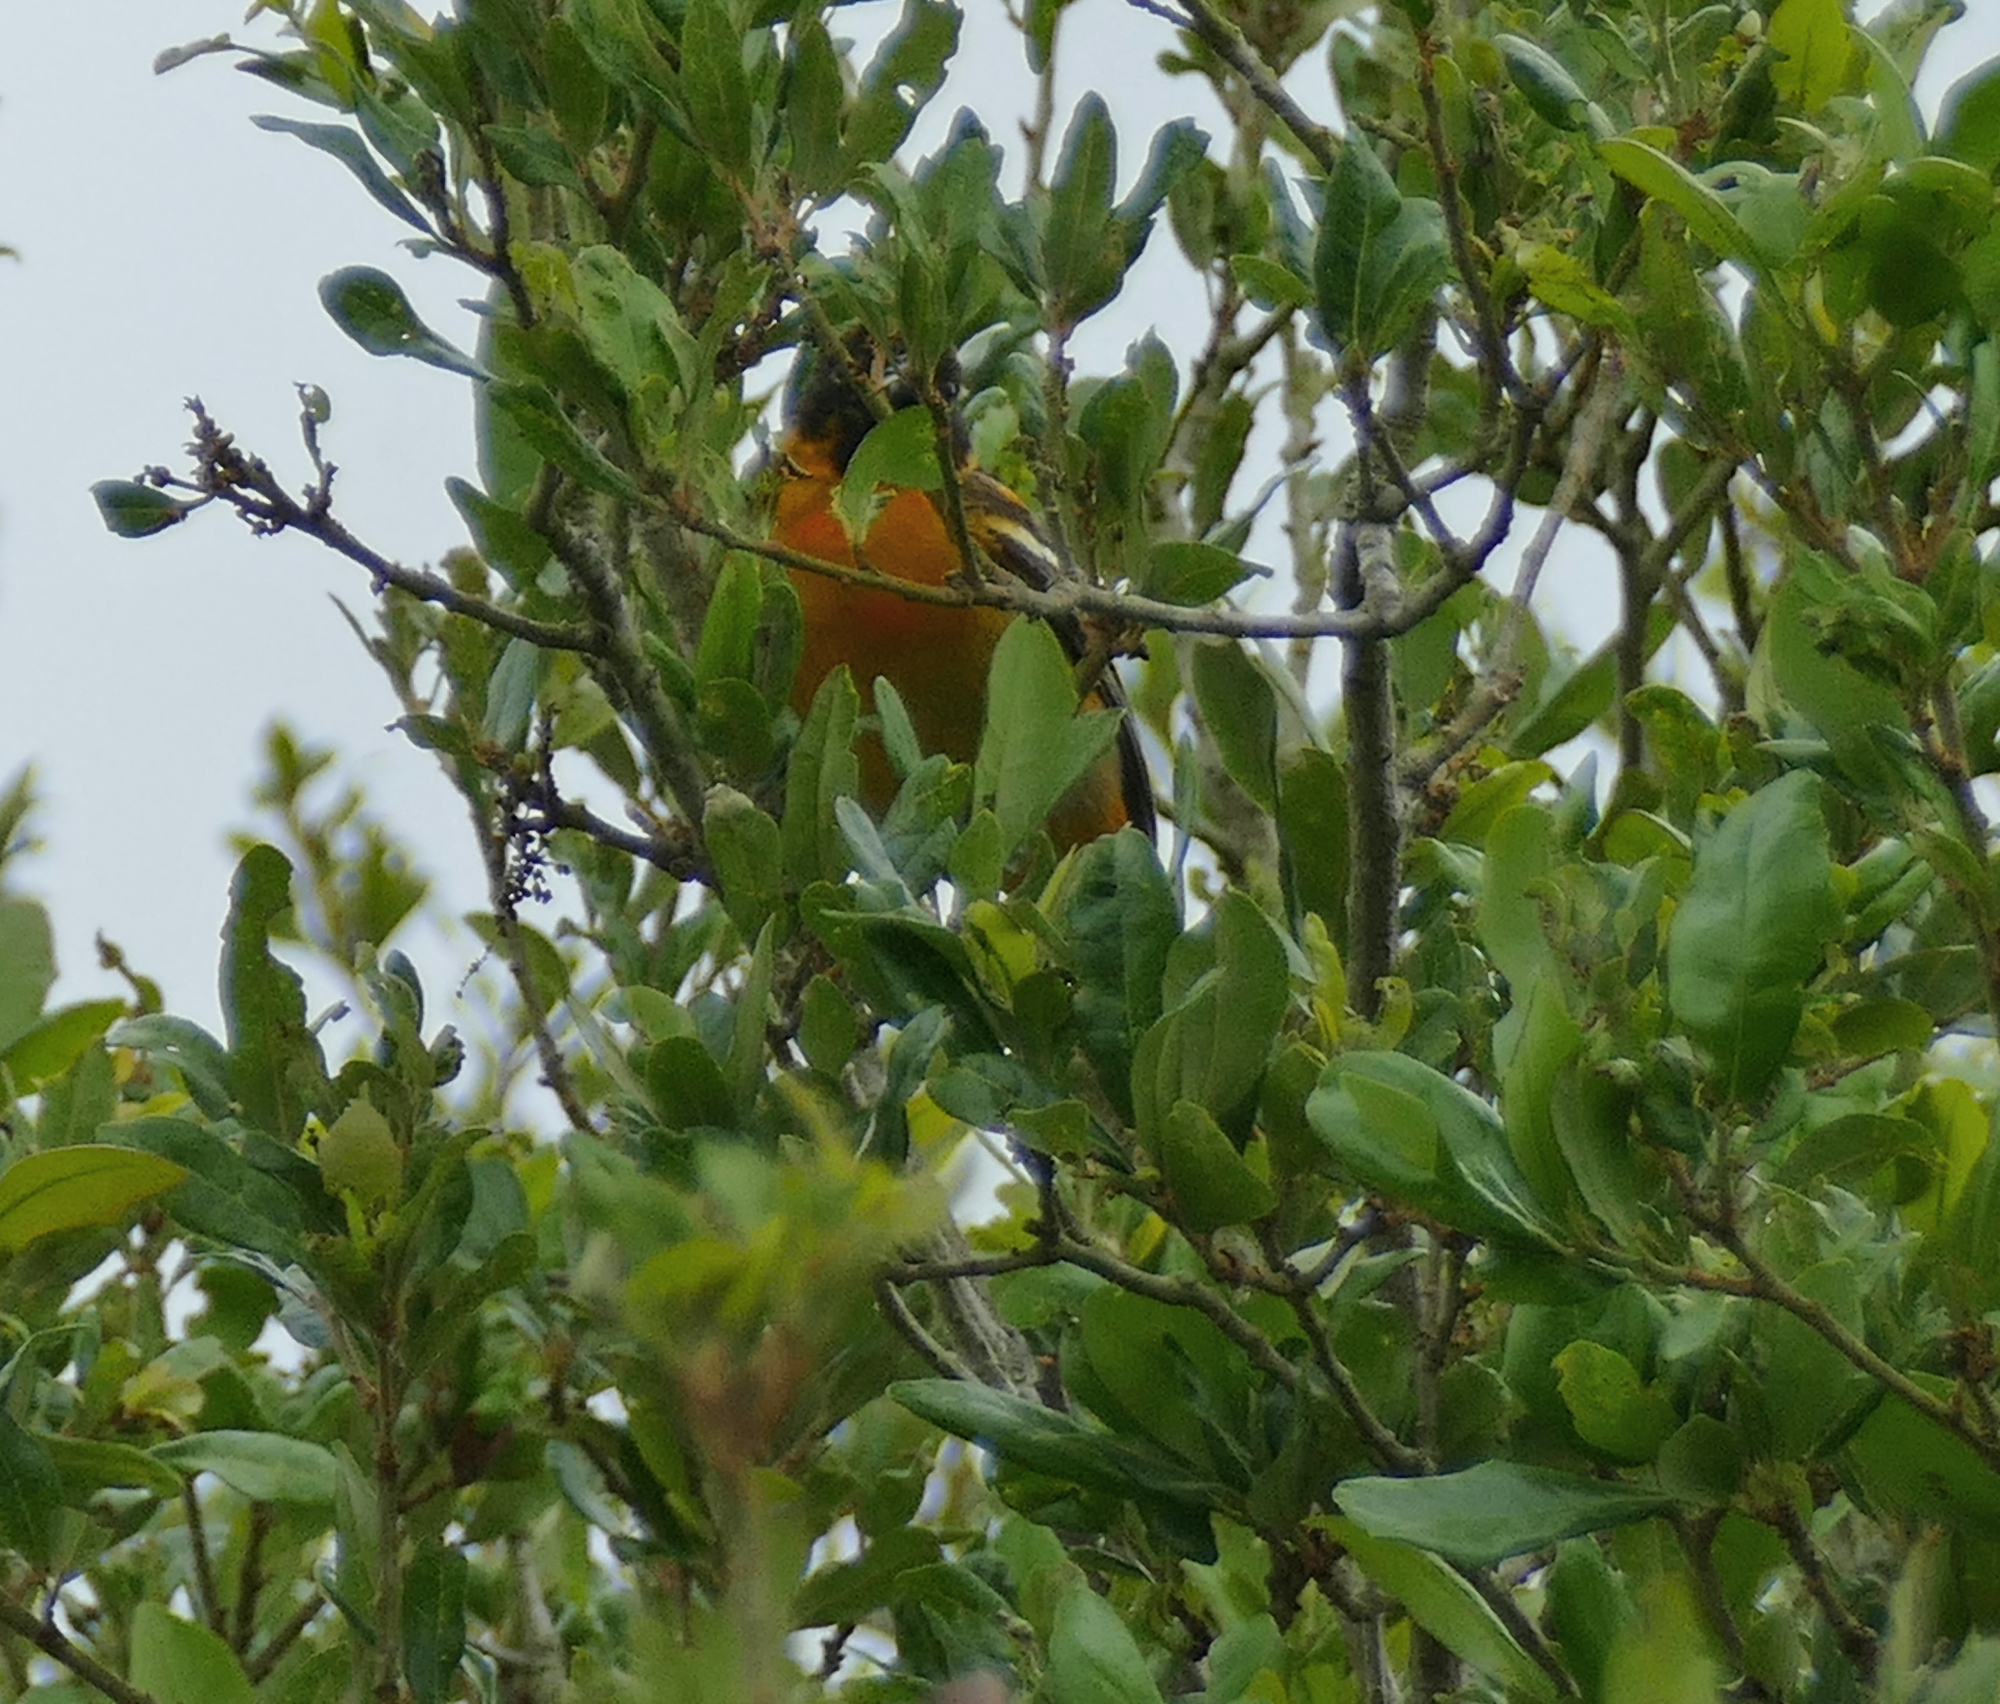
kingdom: Animalia
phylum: Chordata
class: Aves
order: Passeriformes
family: Icteridae
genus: Icterus
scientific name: Icterus galbula
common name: Baltimore oriole
